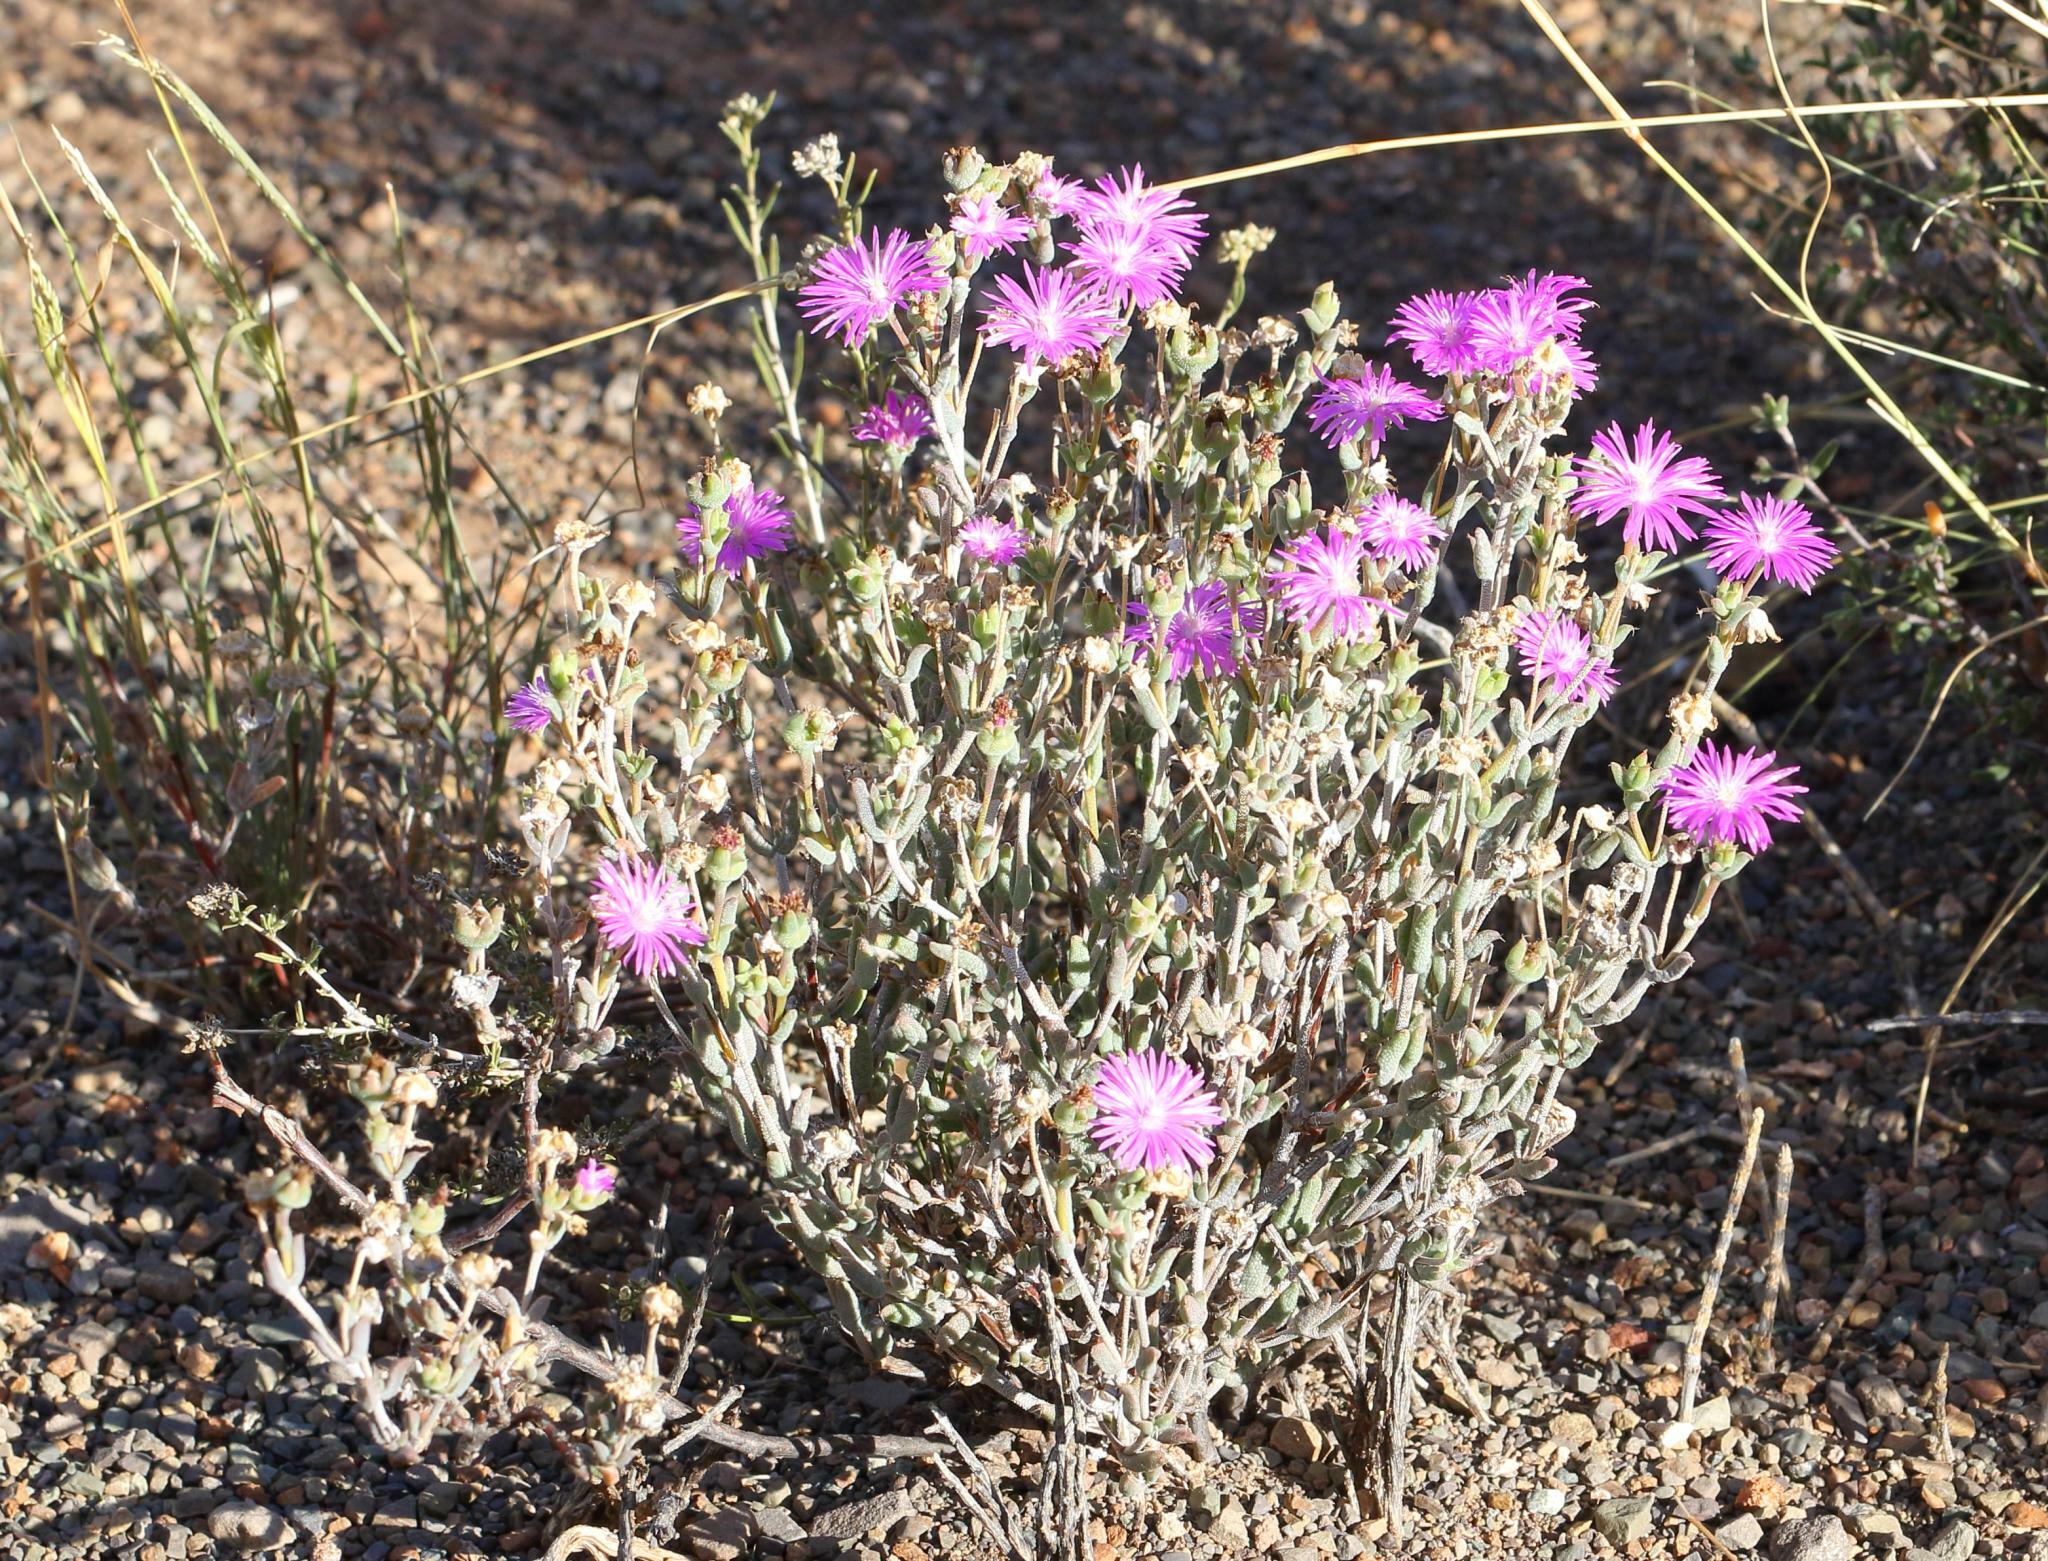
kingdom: Plantae
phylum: Tracheophyta
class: Magnoliopsida
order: Caryophyllales
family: Aizoaceae
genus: Trichodiadema
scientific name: Trichodiadema setuliferum
